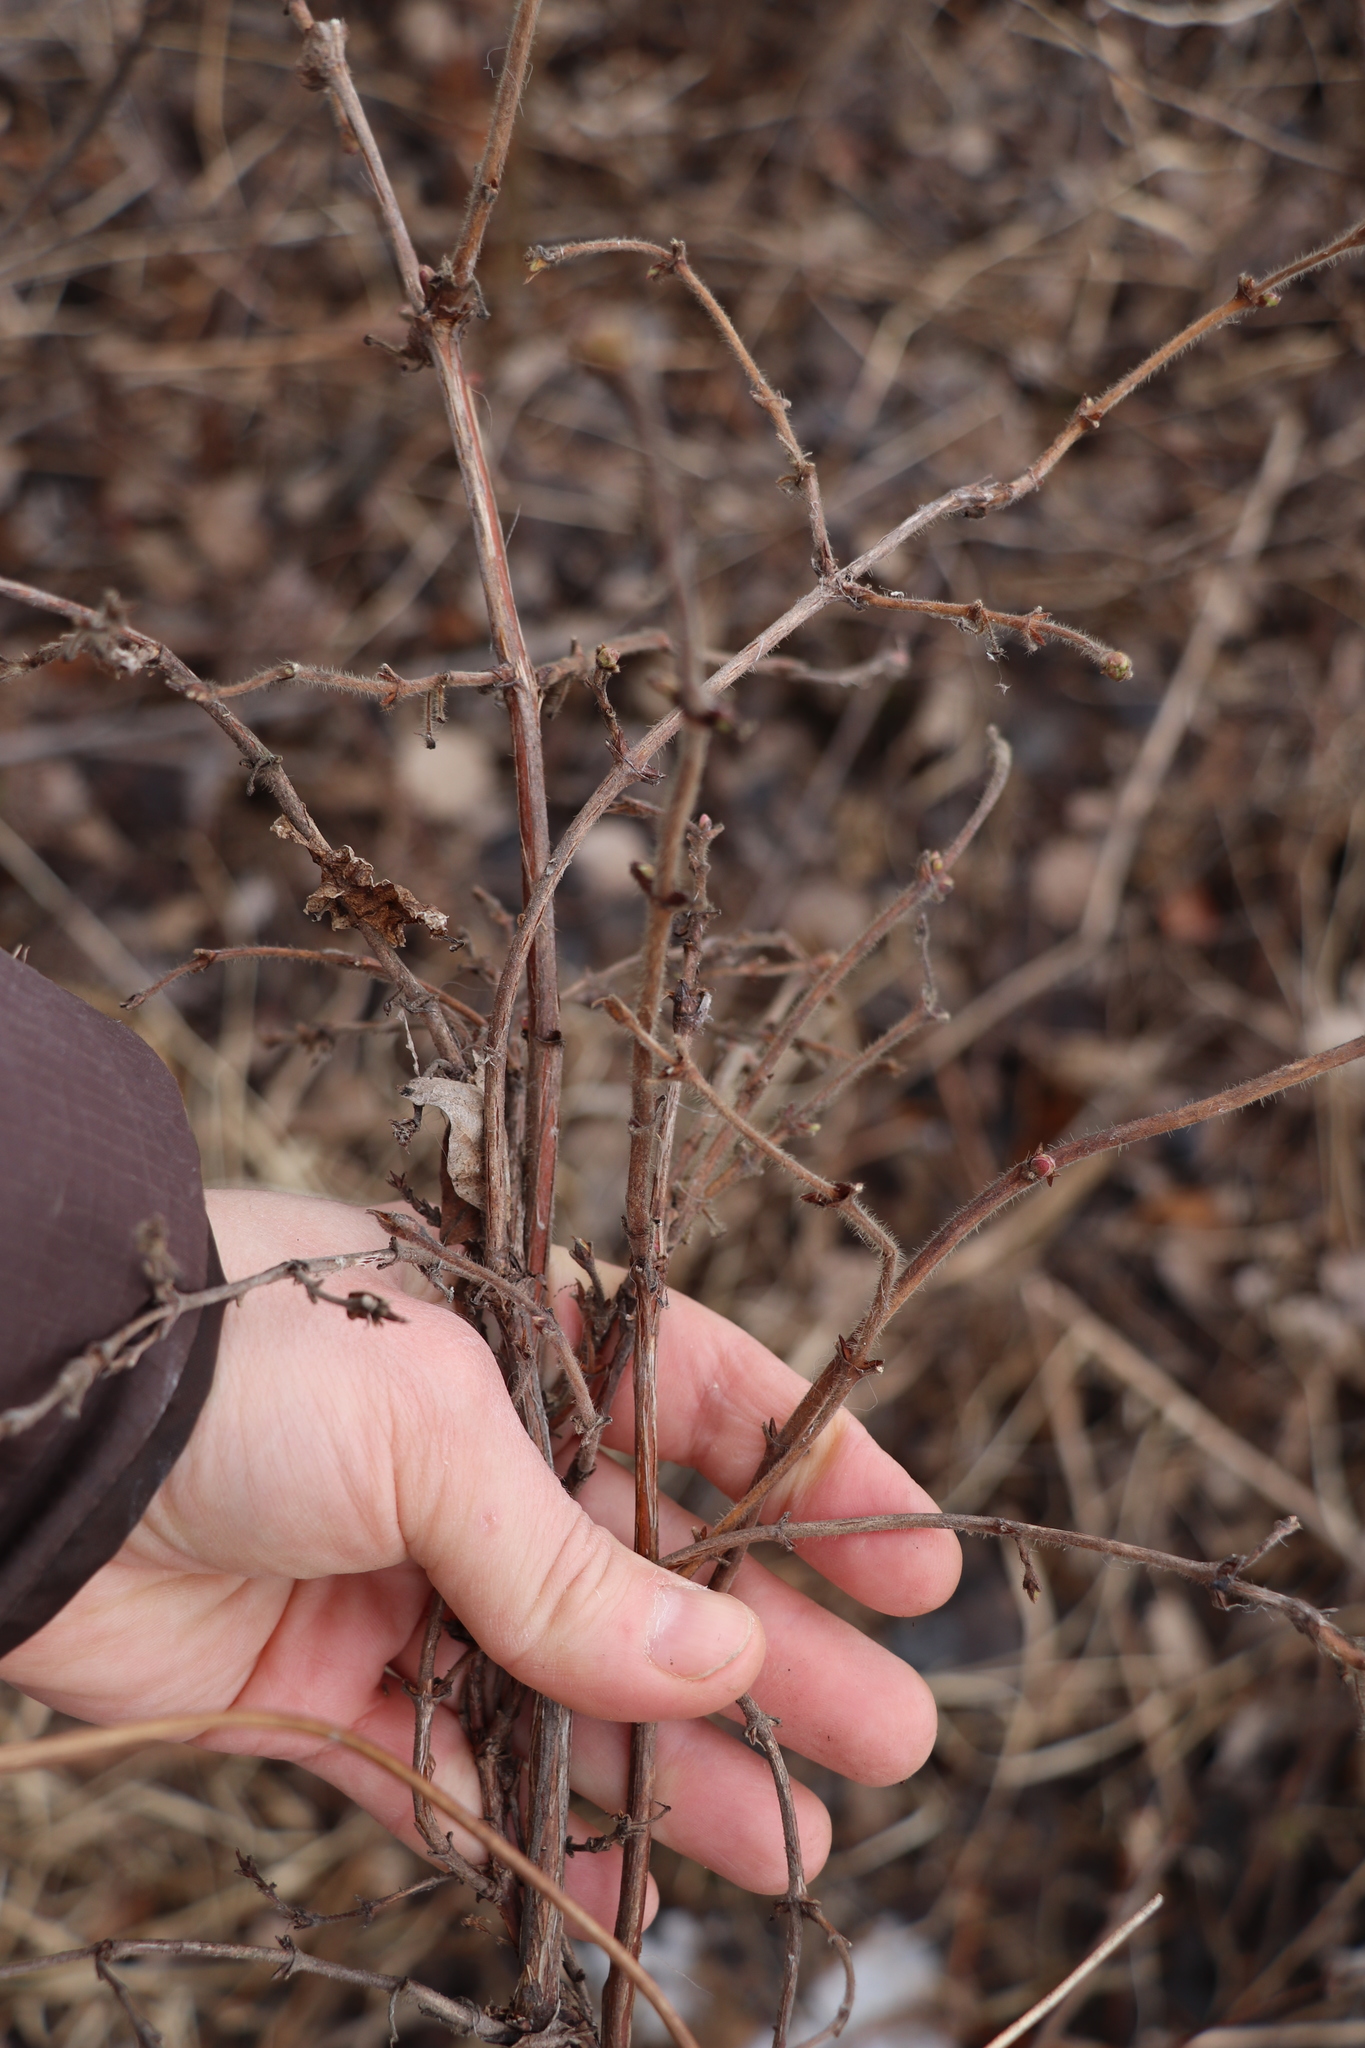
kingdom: Plantae
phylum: Tracheophyta
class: Magnoliopsida
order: Dipsacales
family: Caprifoliaceae
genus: Lonicera
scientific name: Lonicera caerulea
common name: Blue honeysuckle
